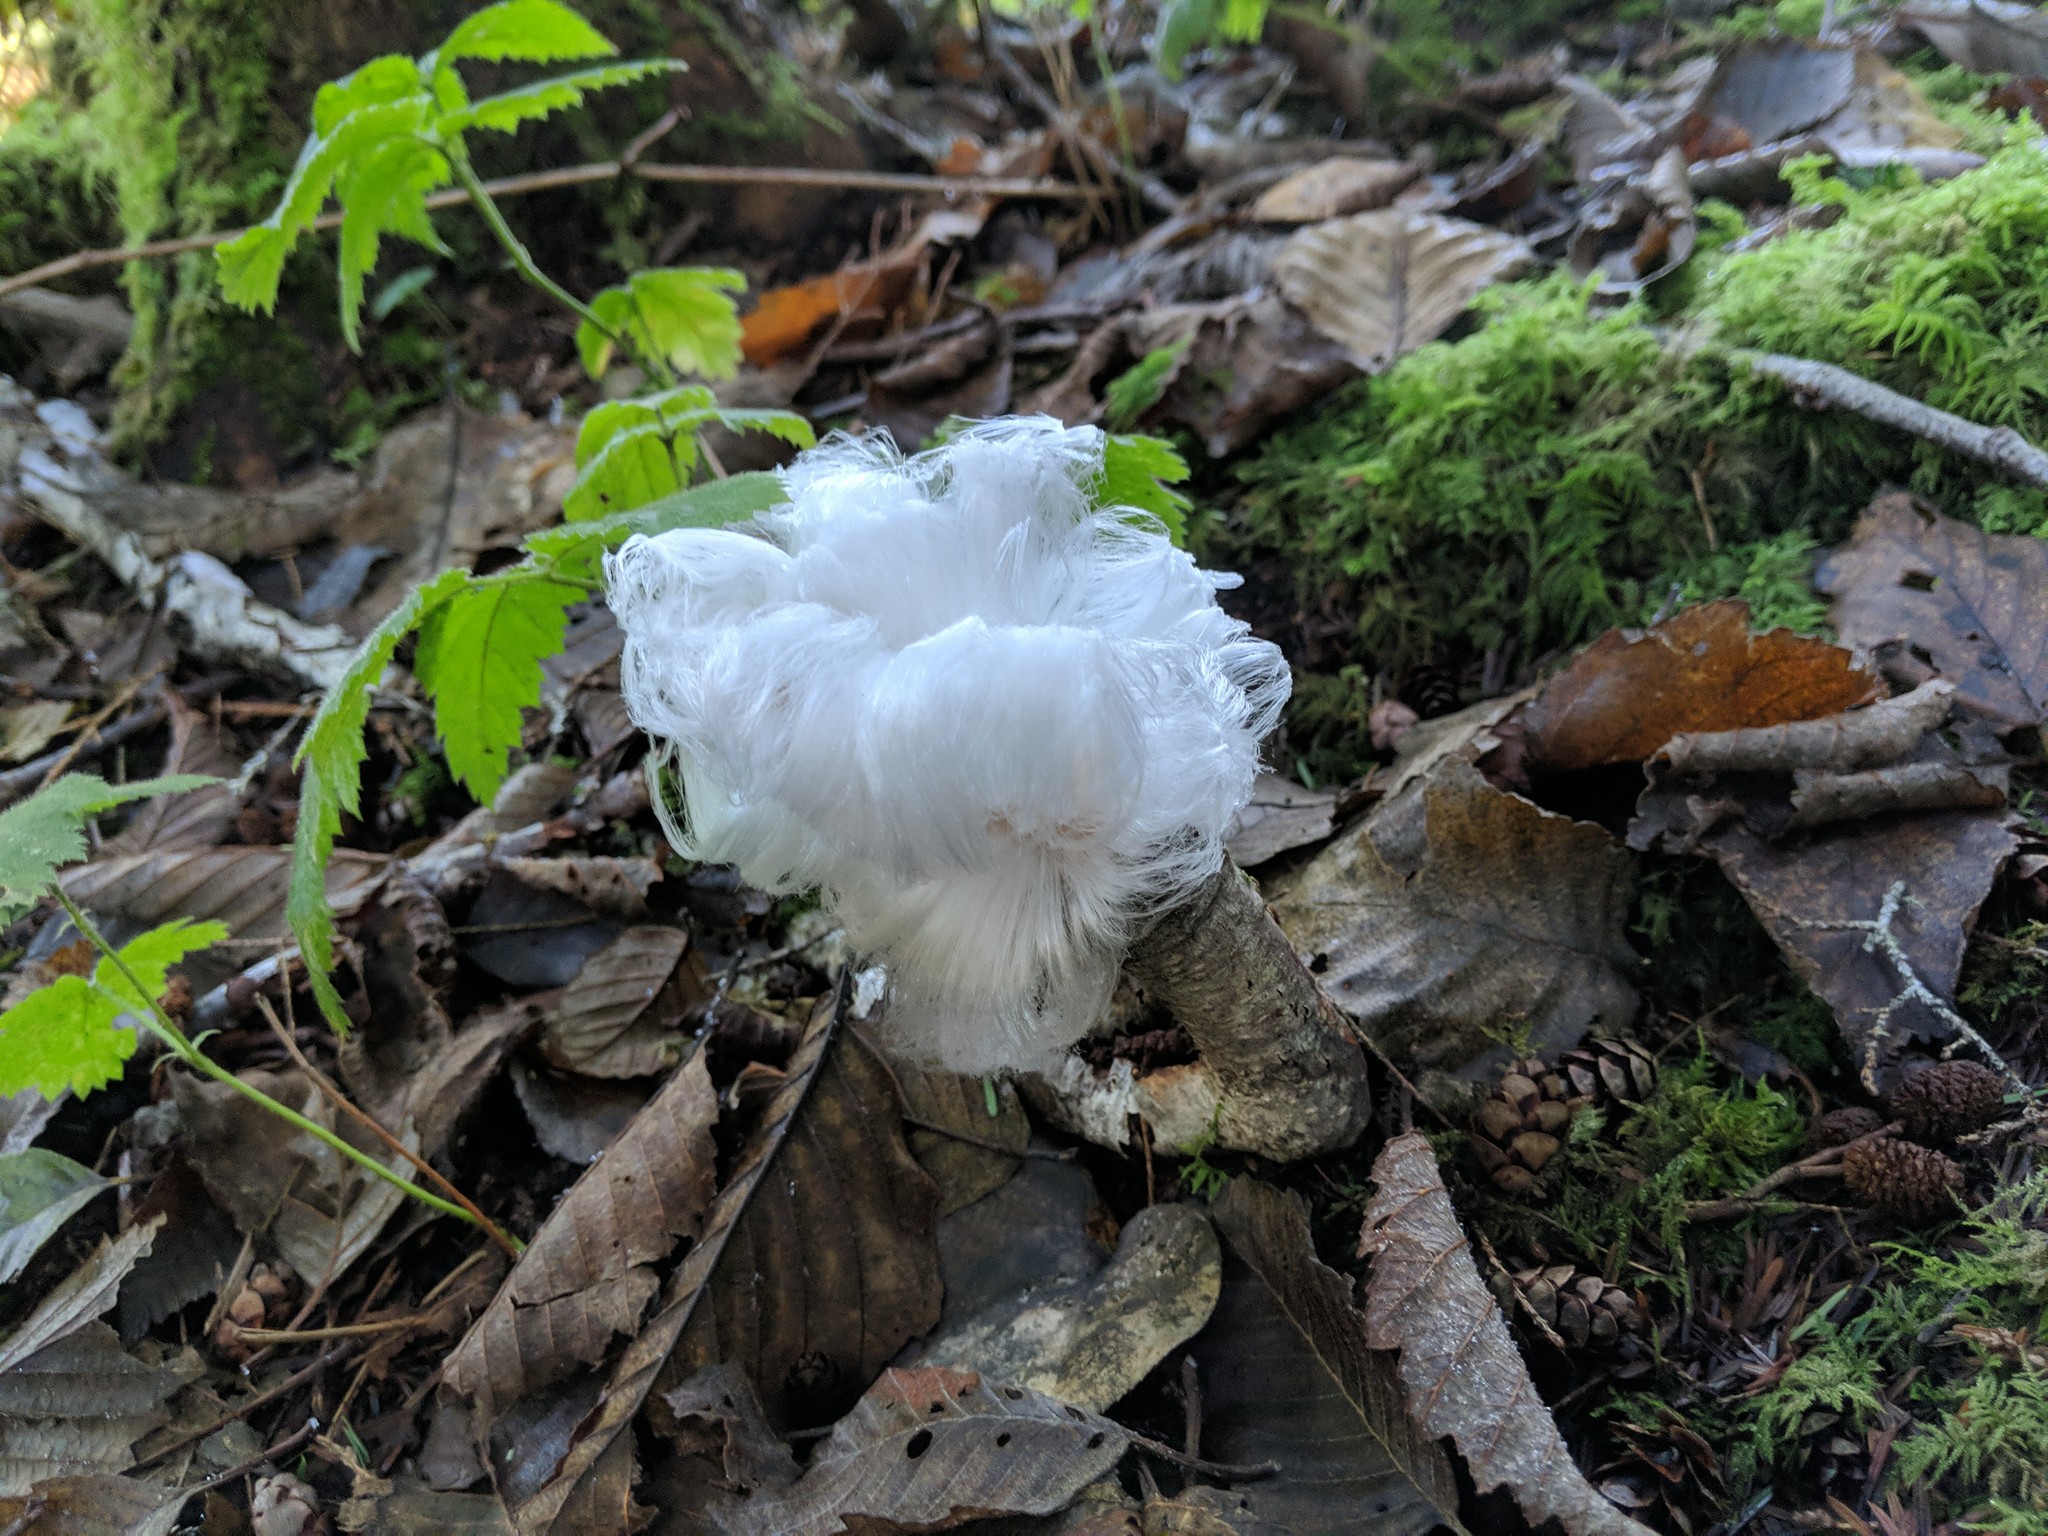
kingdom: Fungi
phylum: Basidiomycota
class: Agaricomycetes
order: Auriculariales
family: Auriculariaceae
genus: Exidiopsis
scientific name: Exidiopsis effusa
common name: Hair ice crust
